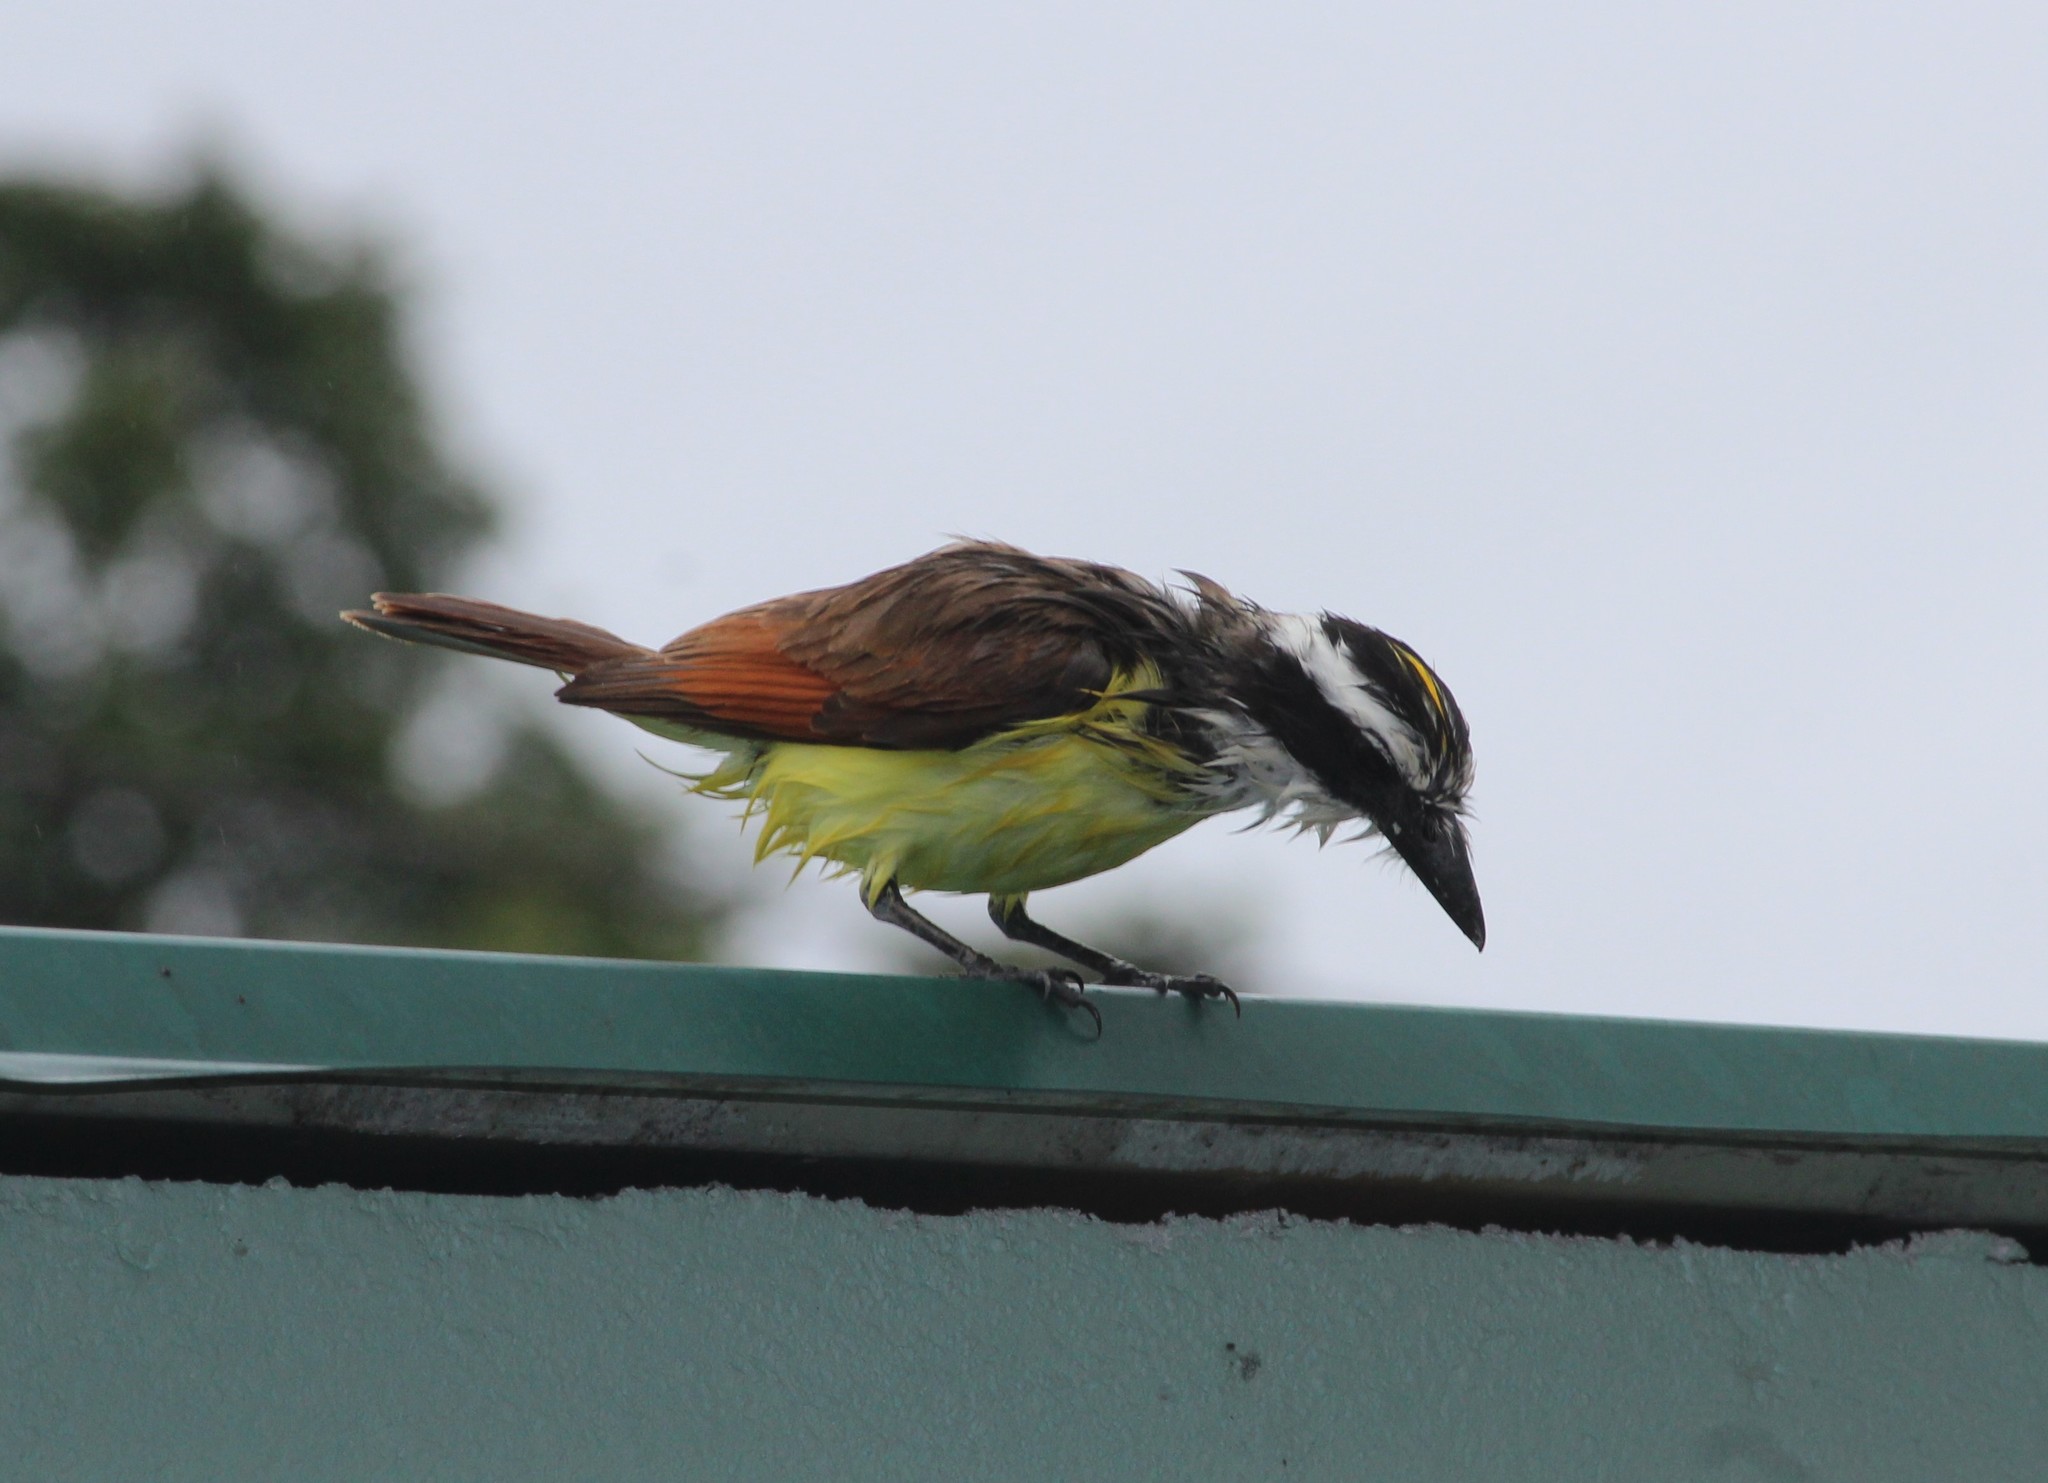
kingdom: Animalia
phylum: Chordata
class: Aves
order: Passeriformes
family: Tyrannidae
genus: Pitangus
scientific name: Pitangus sulphuratus
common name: Great kiskadee
